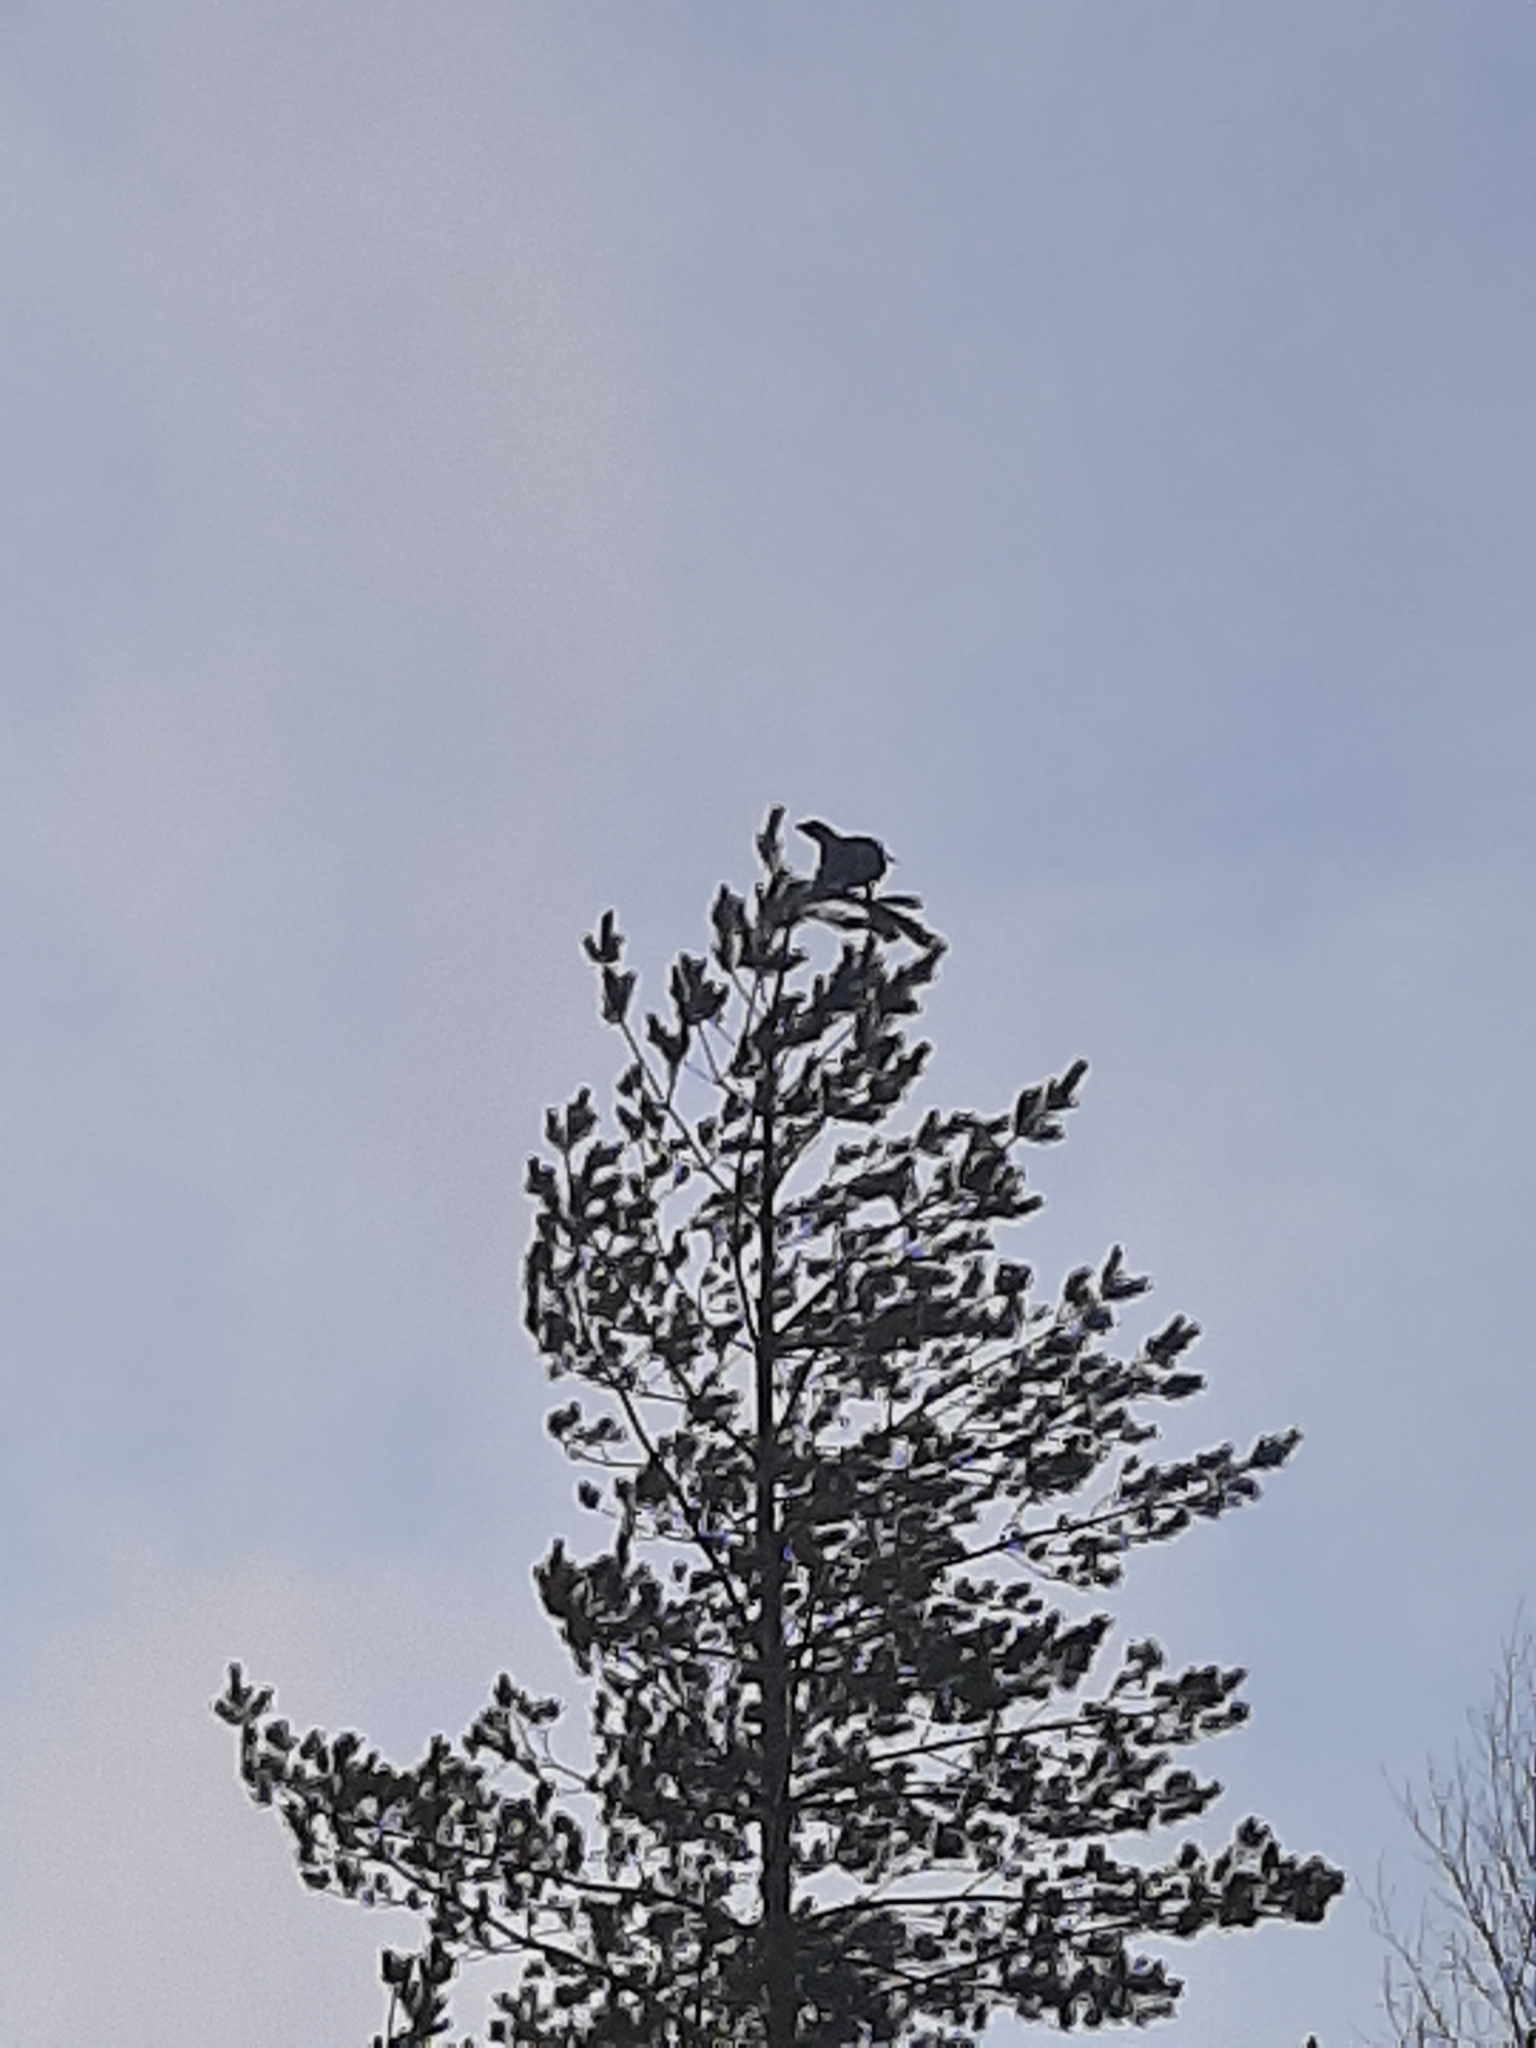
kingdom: Animalia
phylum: Chordata
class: Aves
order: Galliformes
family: Phasianidae
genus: Tetrao
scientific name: Tetrao urogallus
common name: Western capercaillie
